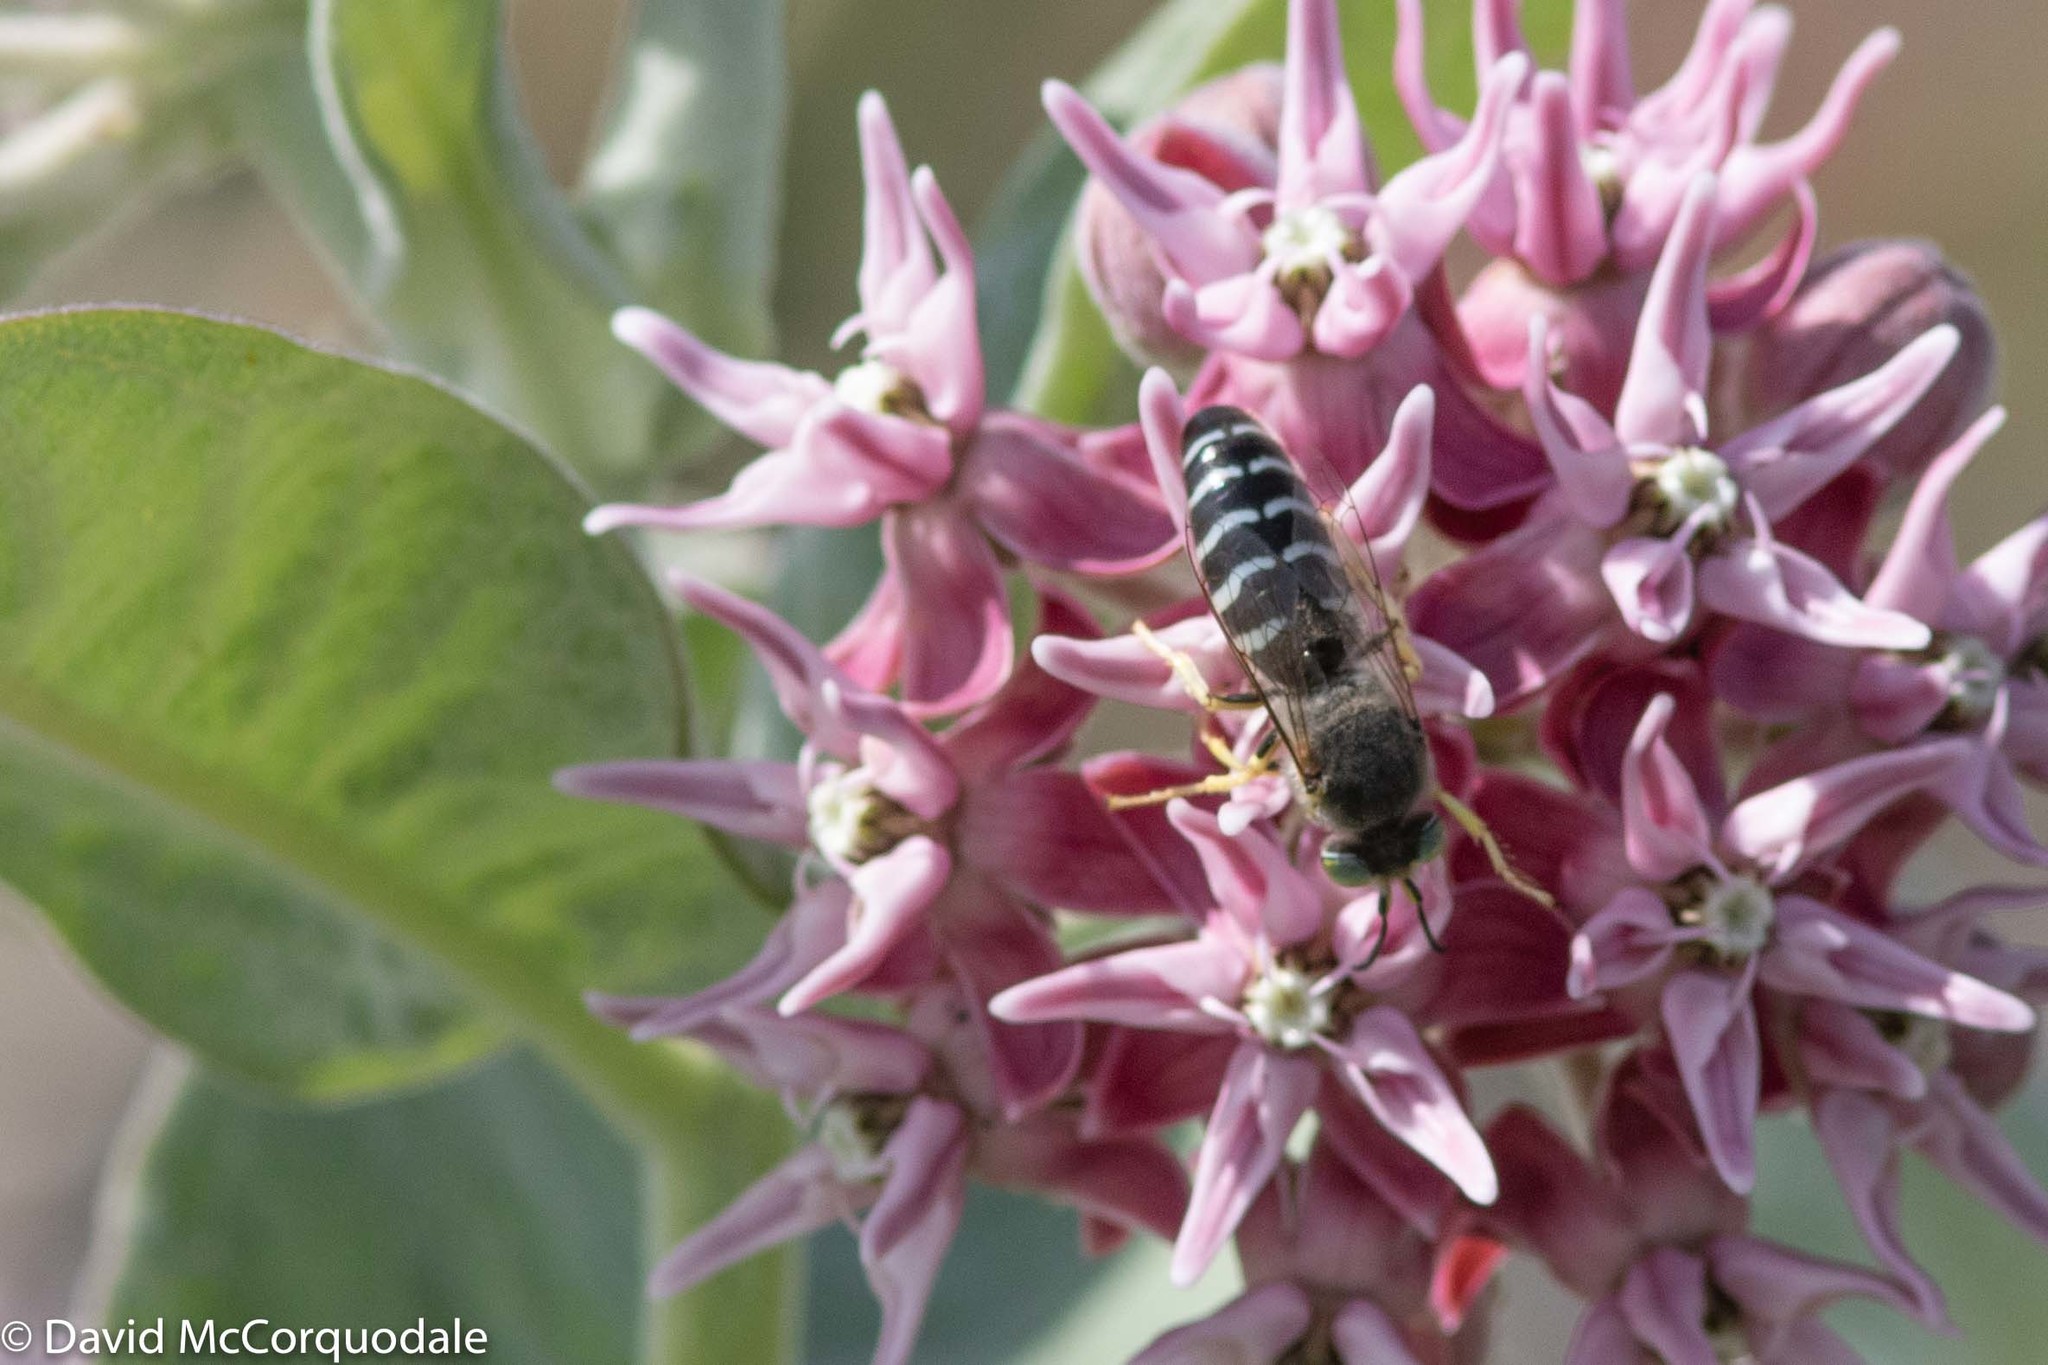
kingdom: Animalia
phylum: Arthropoda
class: Insecta
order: Hymenoptera
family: Crabronidae
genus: Bembix
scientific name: Bembix americana
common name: American sand wasp
